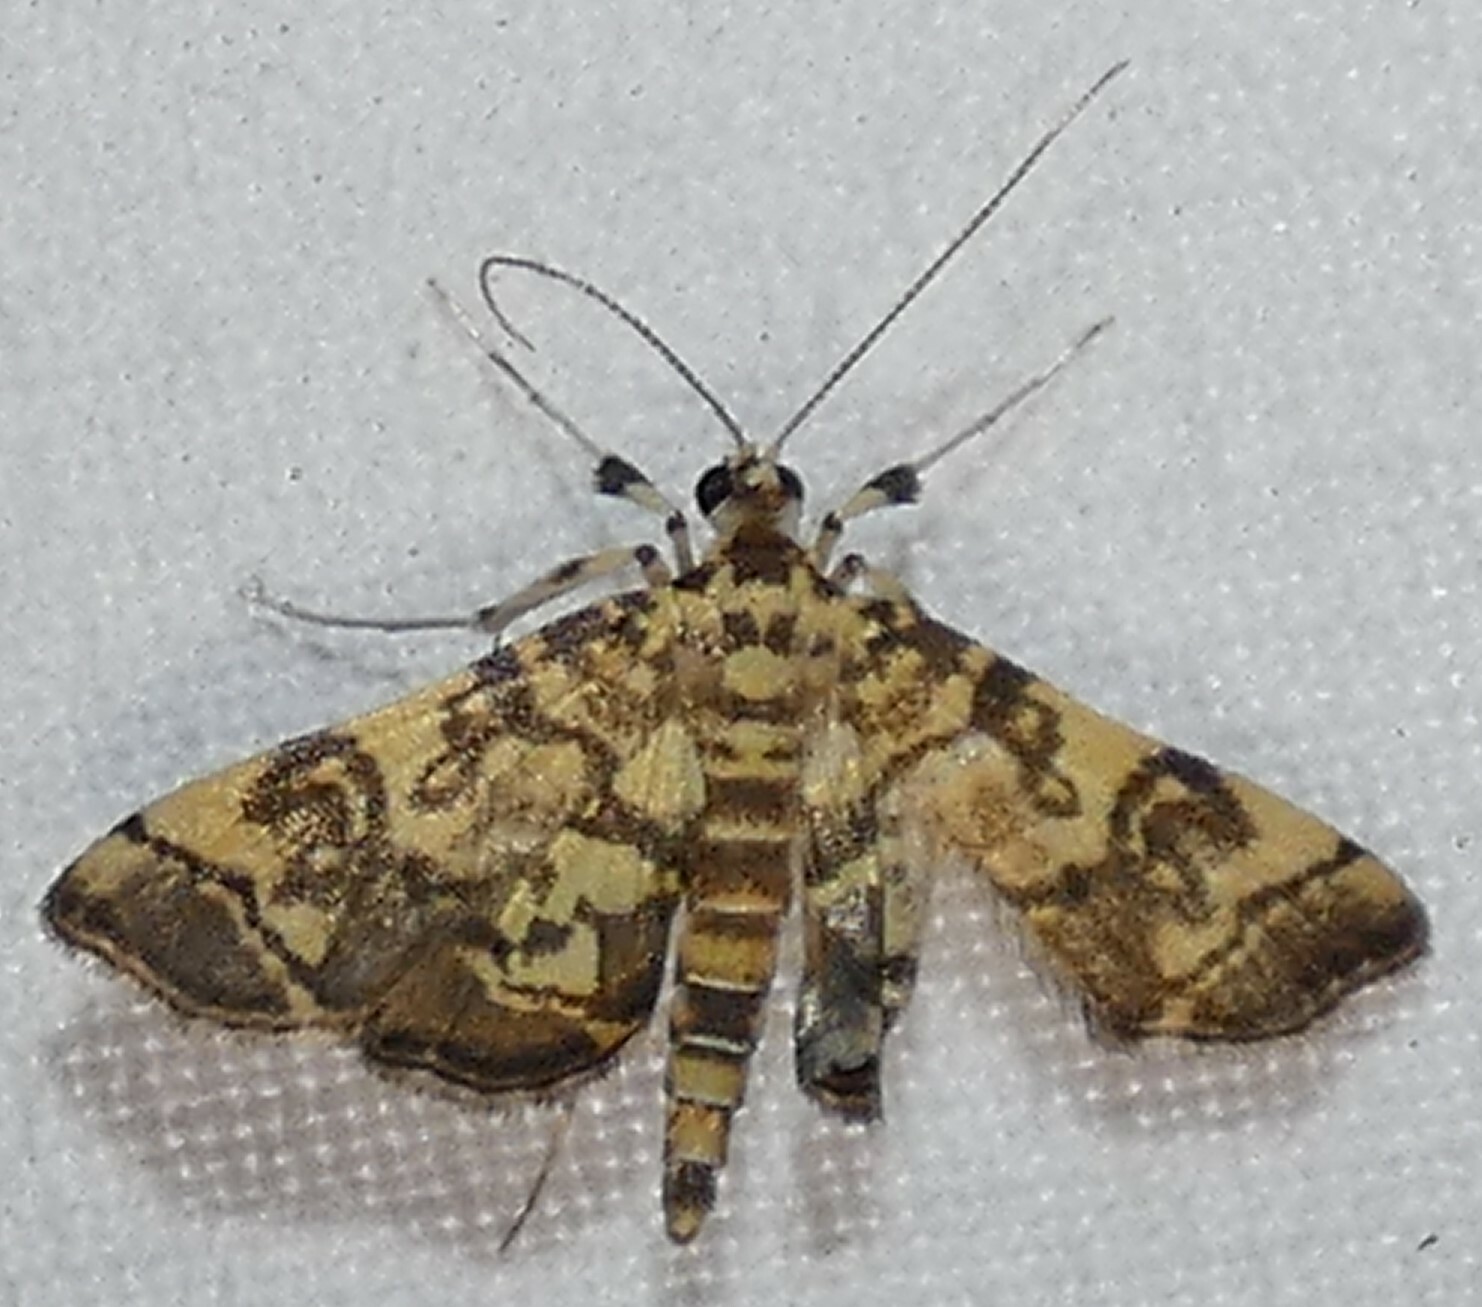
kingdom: Animalia
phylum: Arthropoda
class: Insecta
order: Lepidoptera
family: Crambidae
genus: Apogeshna
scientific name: Apogeshna stenialis
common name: Checkered apogeshna moth
